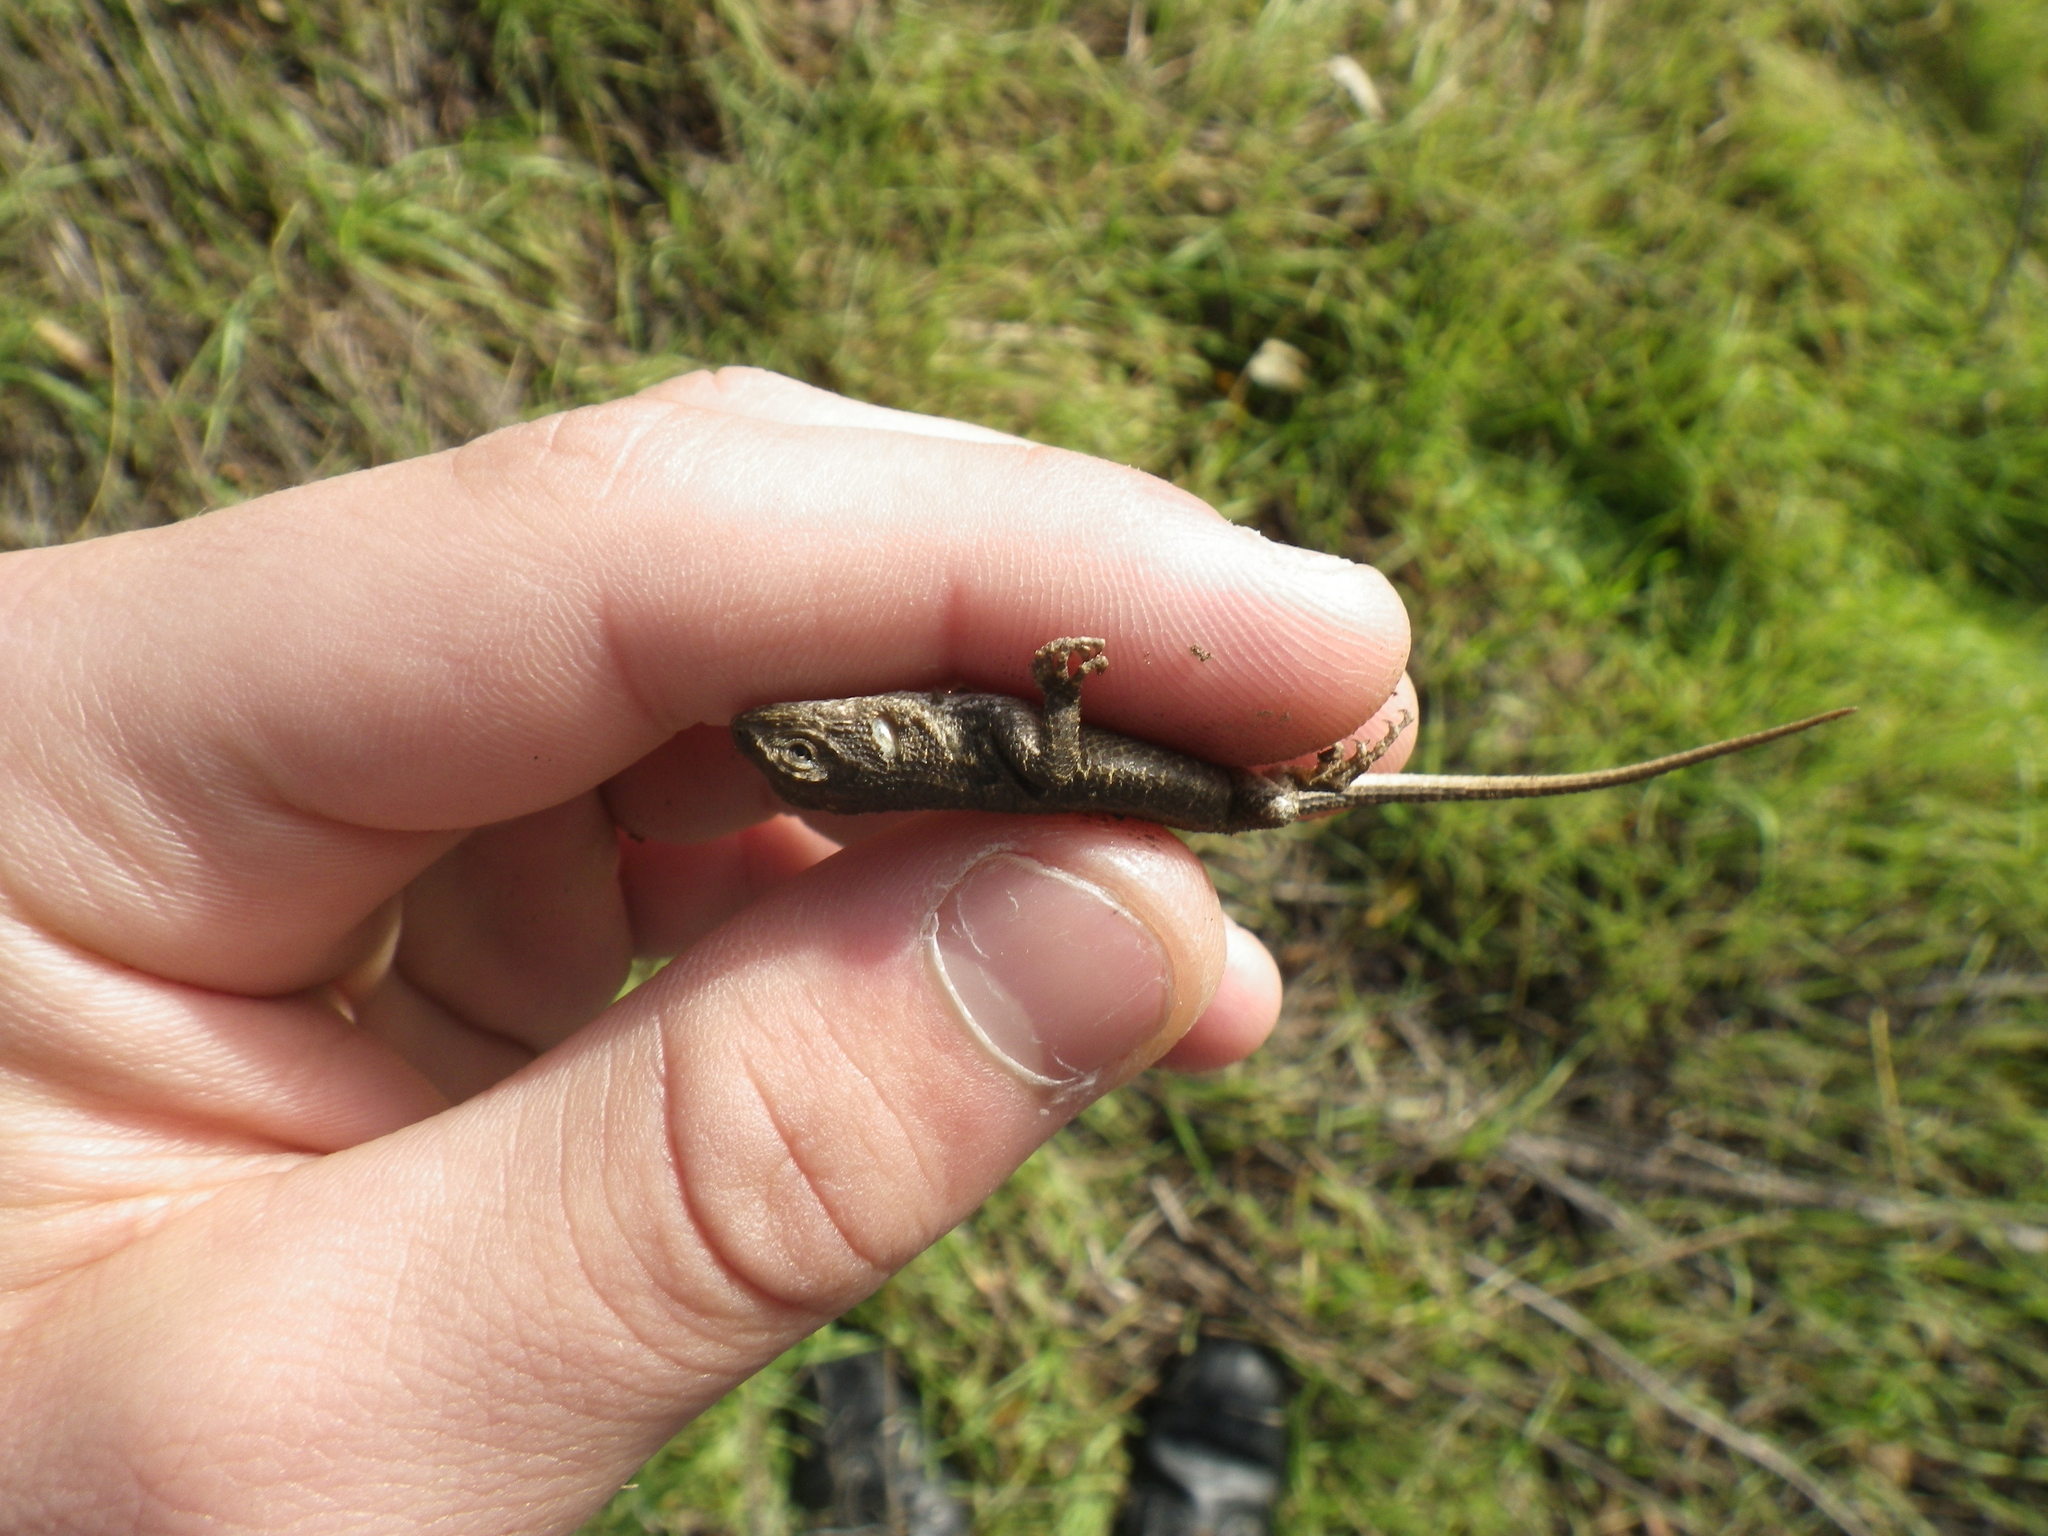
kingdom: Animalia
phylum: Chordata
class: Squamata
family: Phrynosomatidae
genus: Sceloporus
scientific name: Sceloporus occidentalis
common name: Western fence lizard
